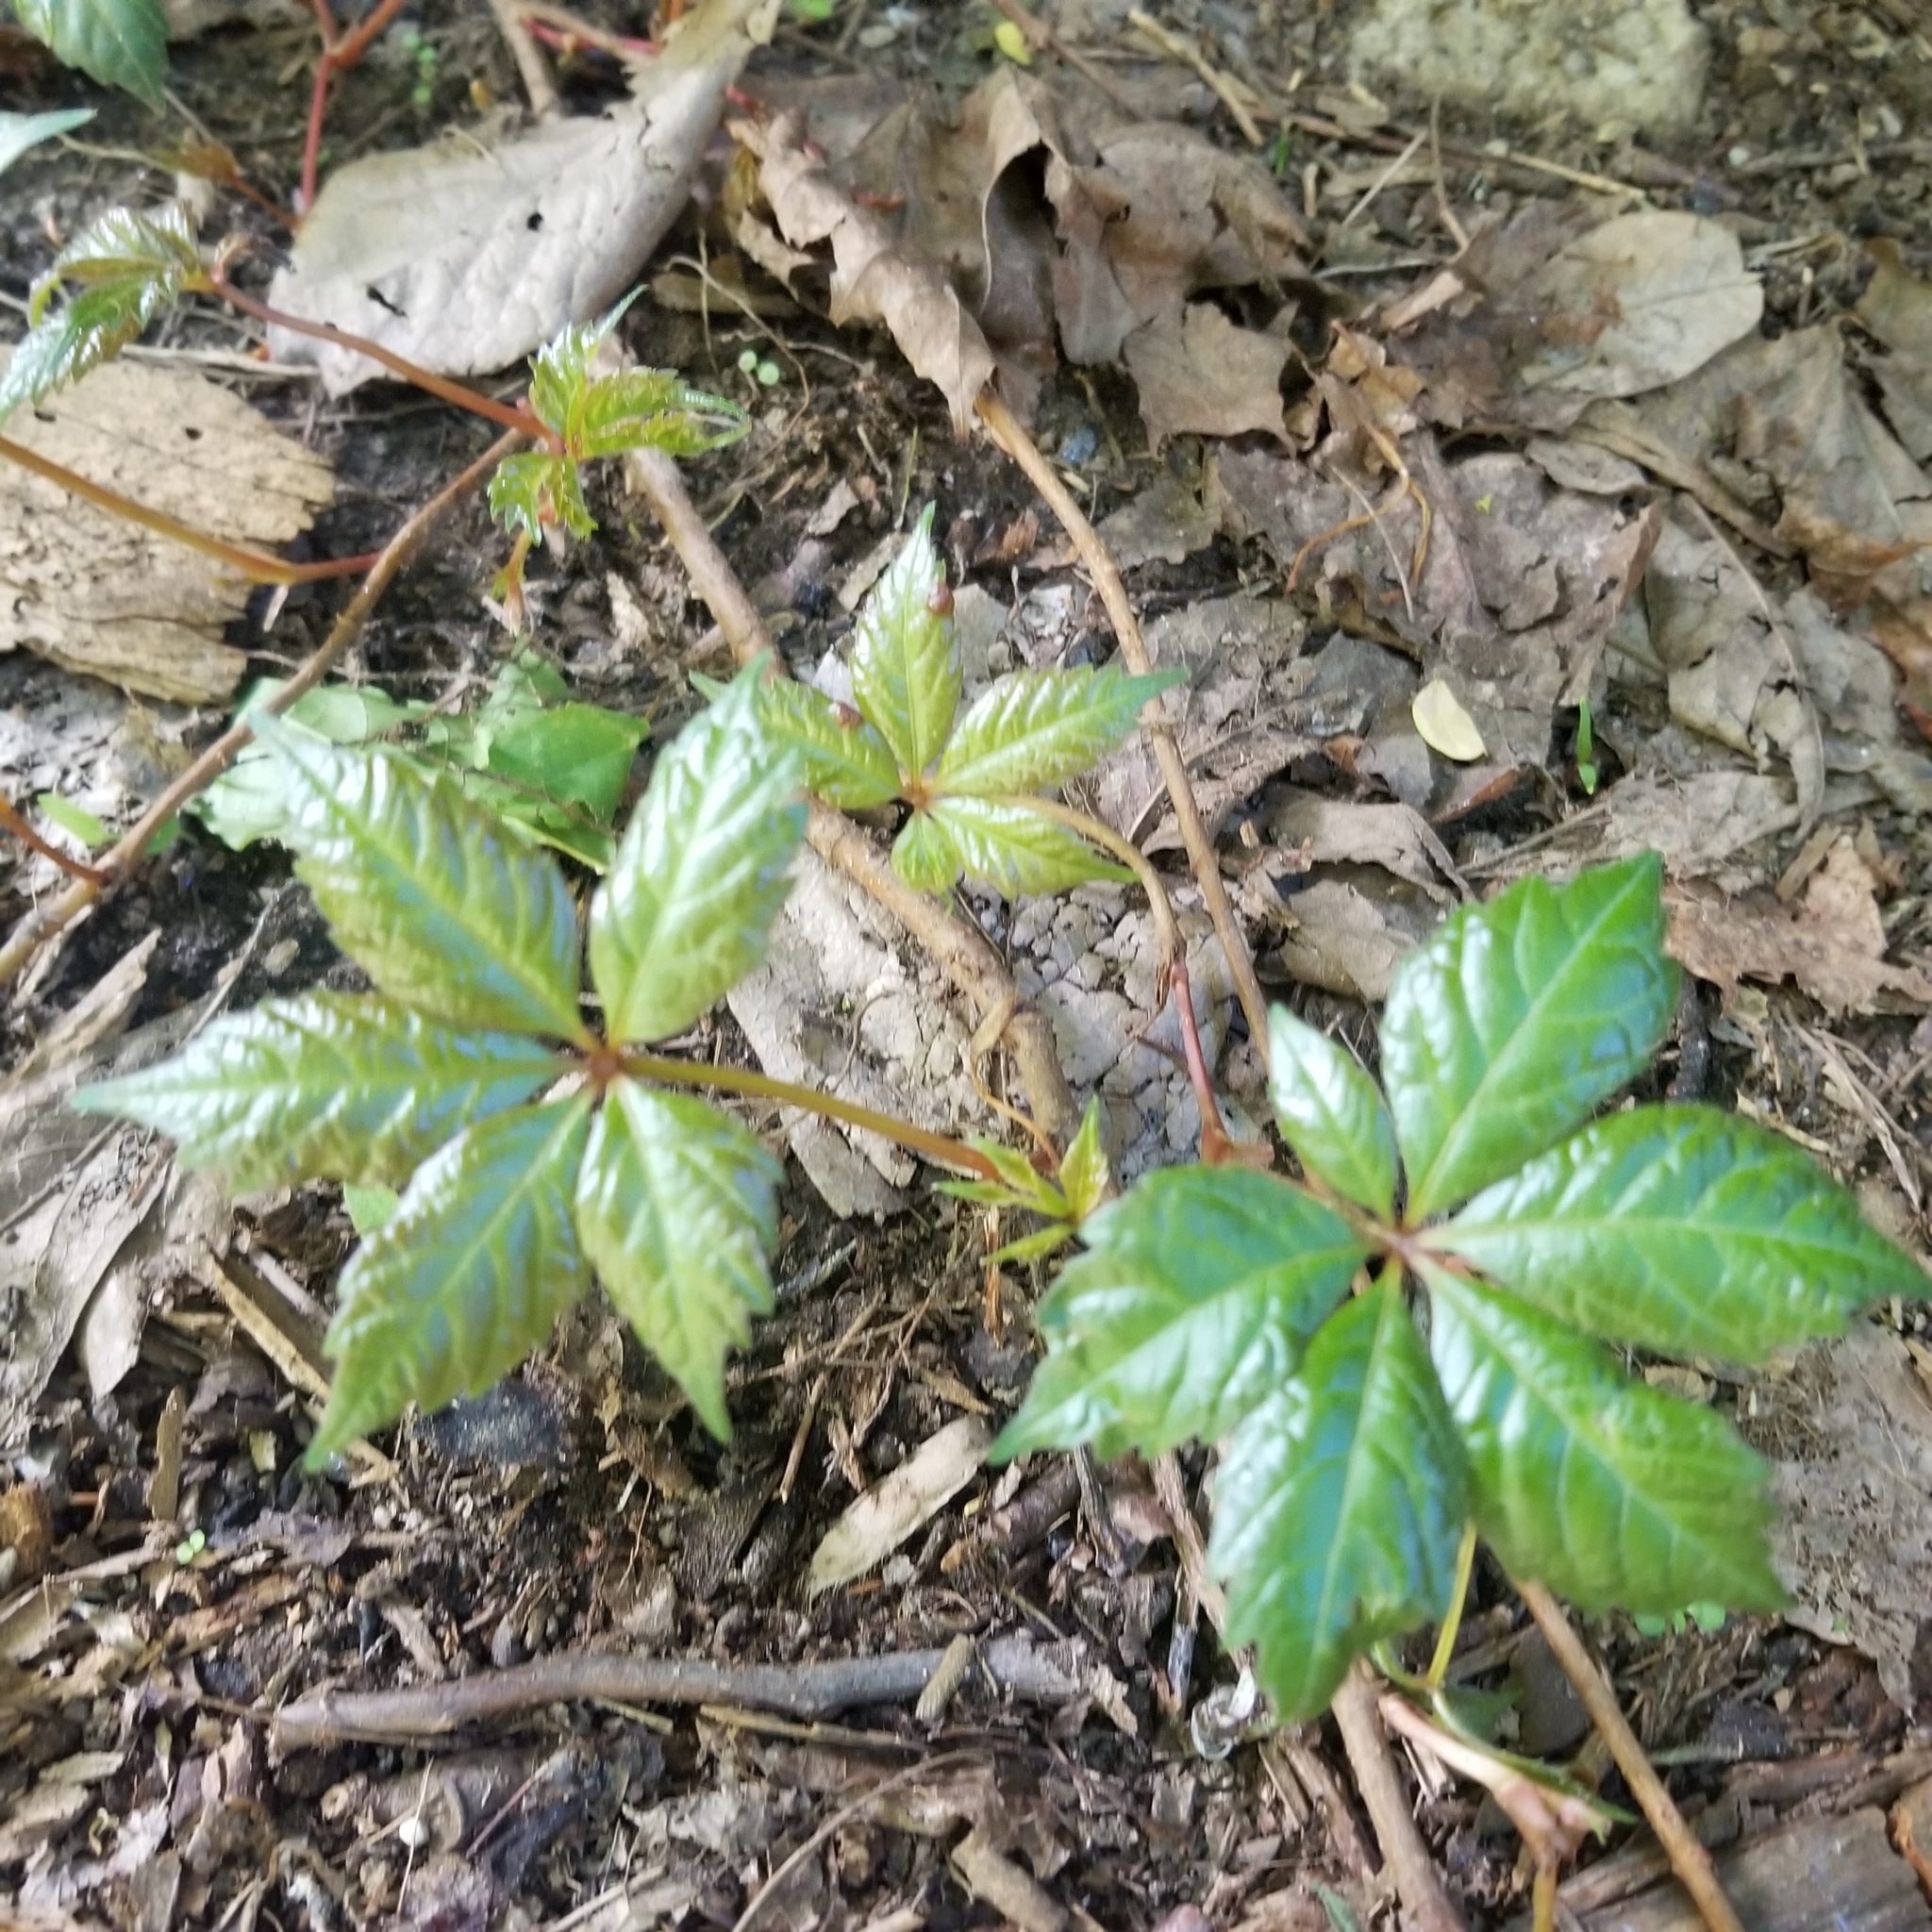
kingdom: Plantae
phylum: Tracheophyta
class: Magnoliopsida
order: Vitales
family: Vitaceae
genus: Parthenocissus
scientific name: Parthenocissus quinquefolia
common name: Virginia-creeper
